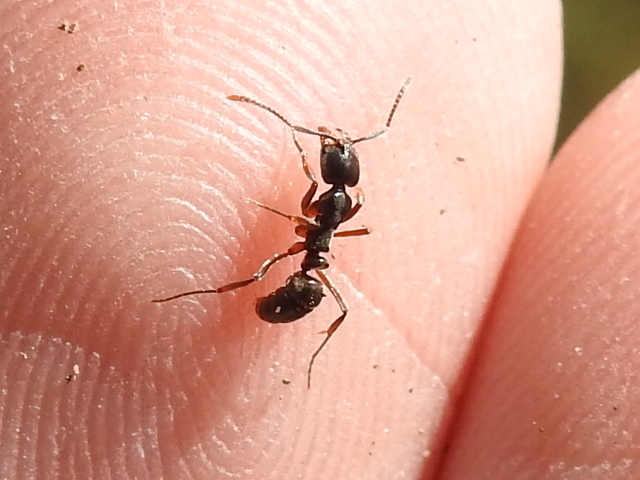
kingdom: Animalia
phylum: Arthropoda
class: Insecta
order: Hymenoptera
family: Formicidae
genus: Pachycondyla
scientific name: Pachycondyla chinensis
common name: Asian needle ant
